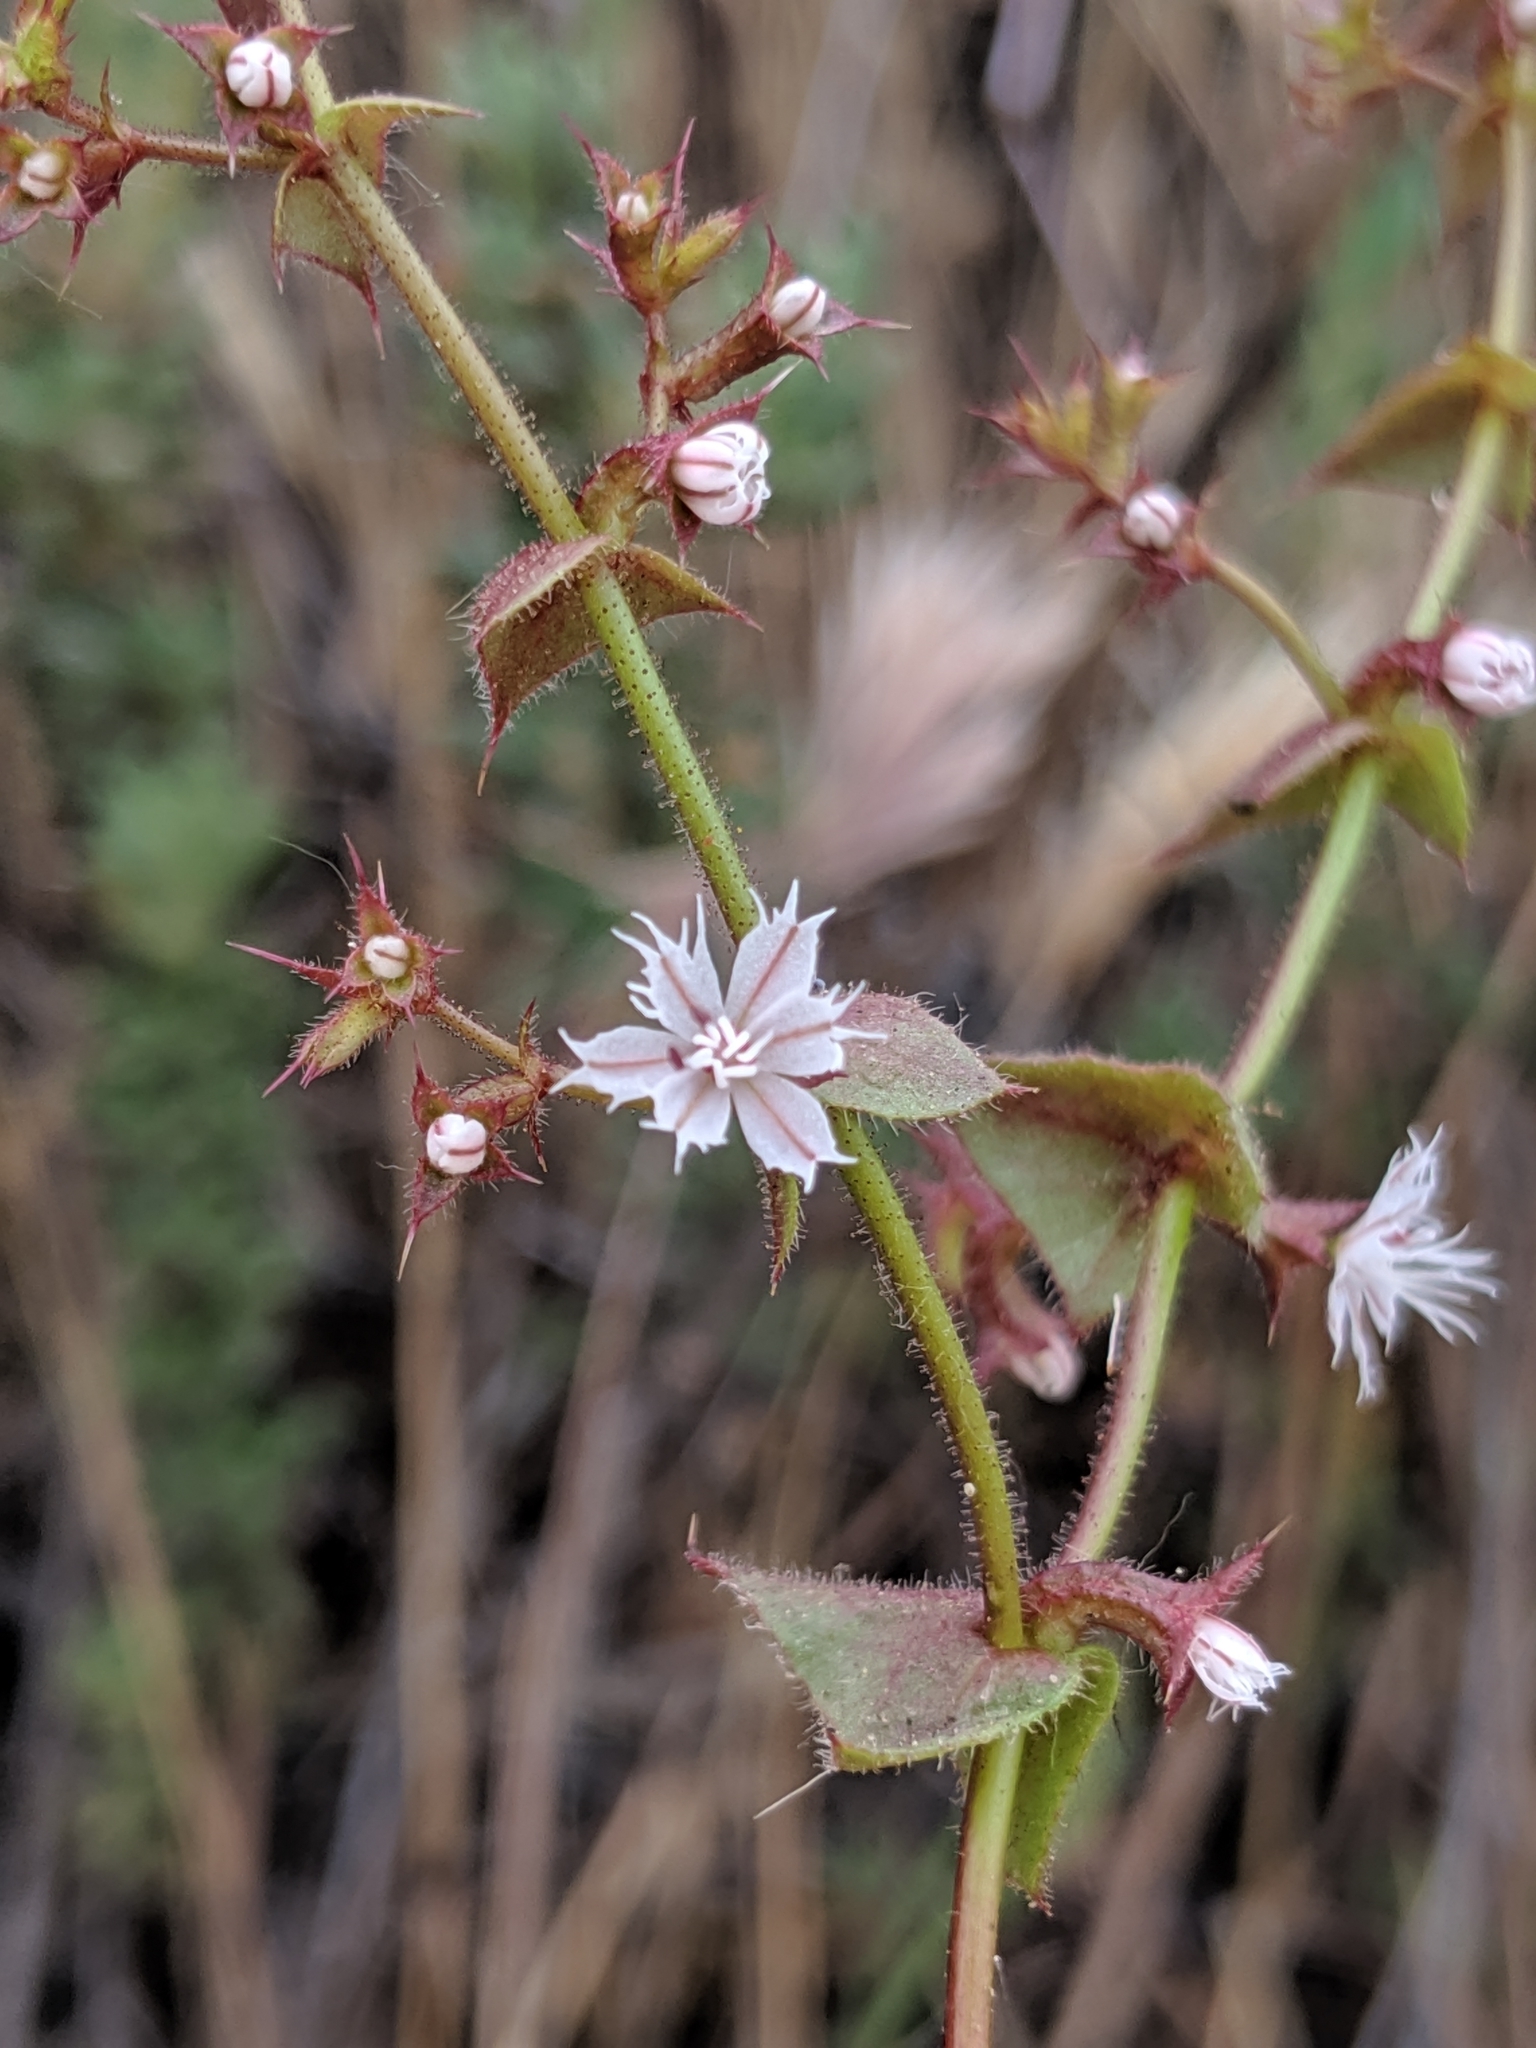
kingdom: Plantae
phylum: Tracheophyta
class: Magnoliopsida
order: Caryophyllales
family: Polygonaceae
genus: Mucronea
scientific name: Mucronea perfoliata
